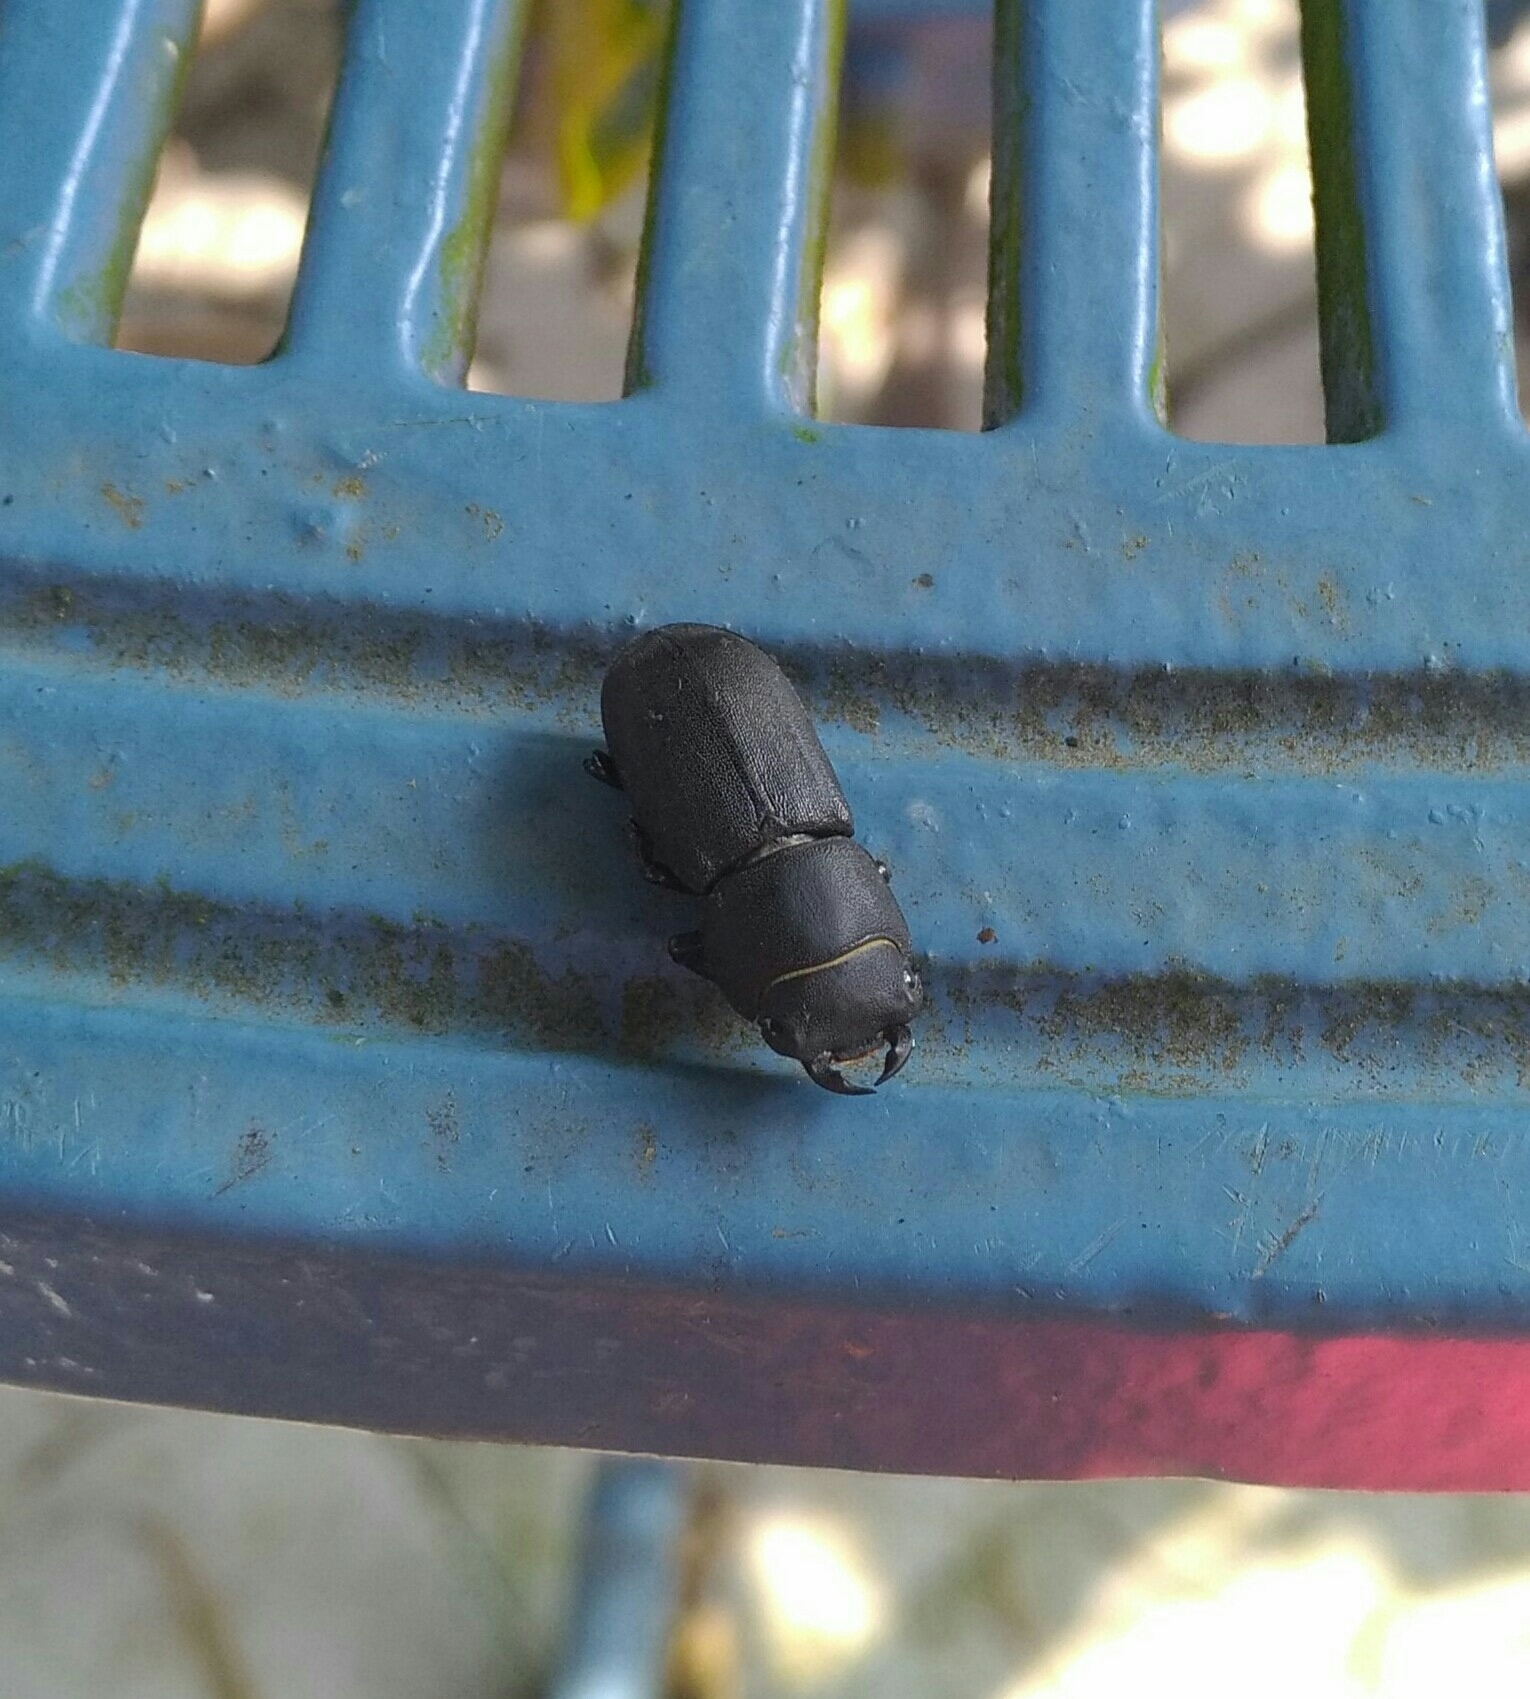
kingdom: Animalia
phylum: Arthropoda
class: Insecta
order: Coleoptera
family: Lucanidae
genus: Dorcus
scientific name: Dorcus parallelipipedus
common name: Lesser stag beetle
